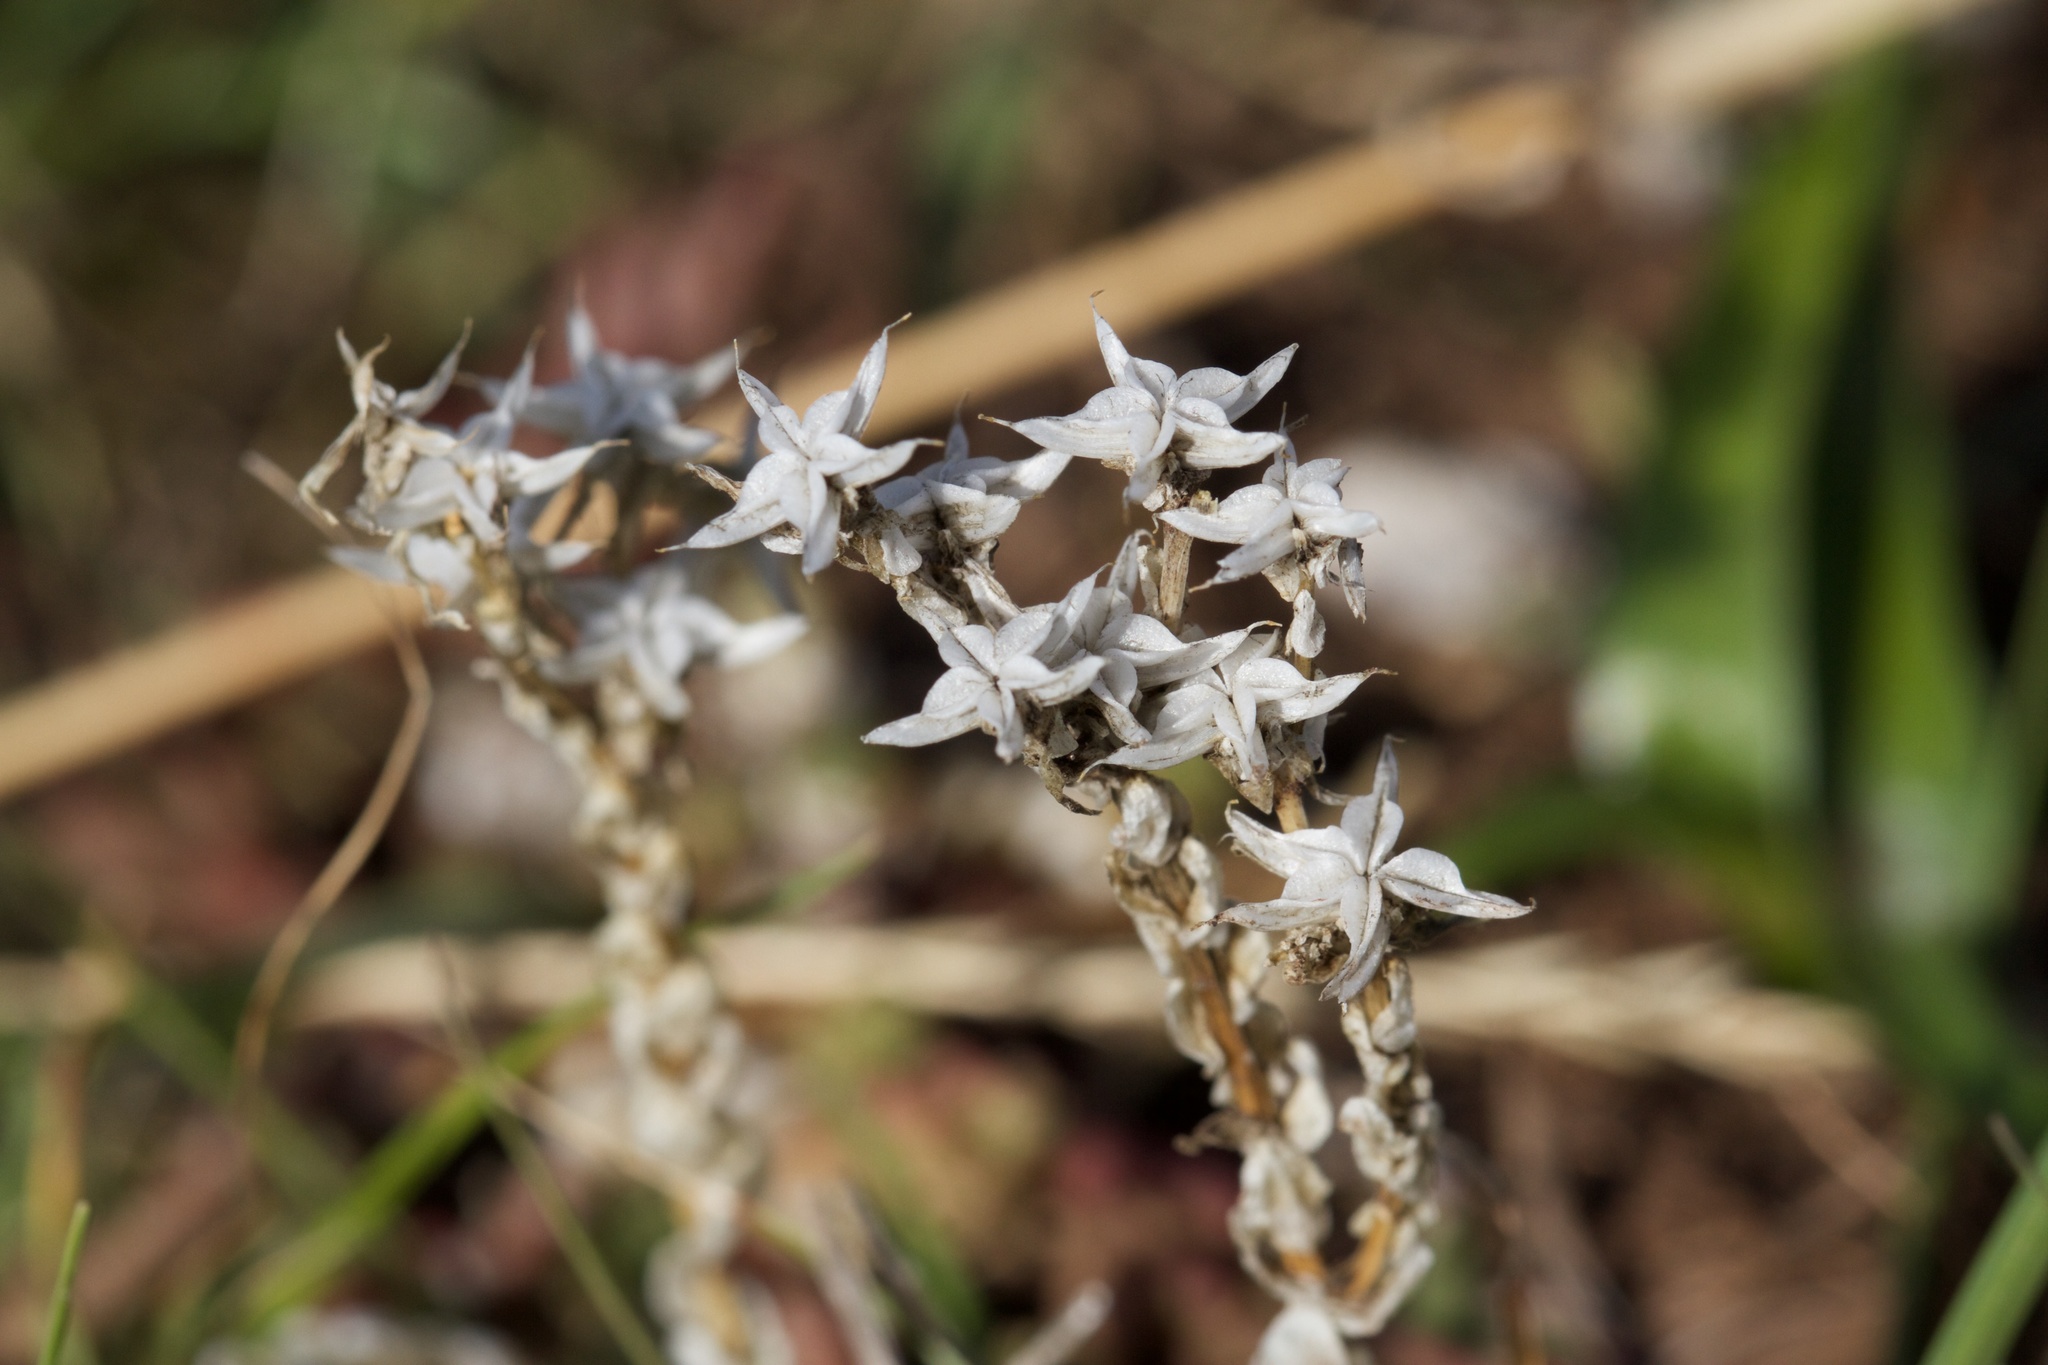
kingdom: Plantae
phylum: Tracheophyta
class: Magnoliopsida
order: Saxifragales
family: Crassulaceae
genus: Sedum
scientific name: Sedum
